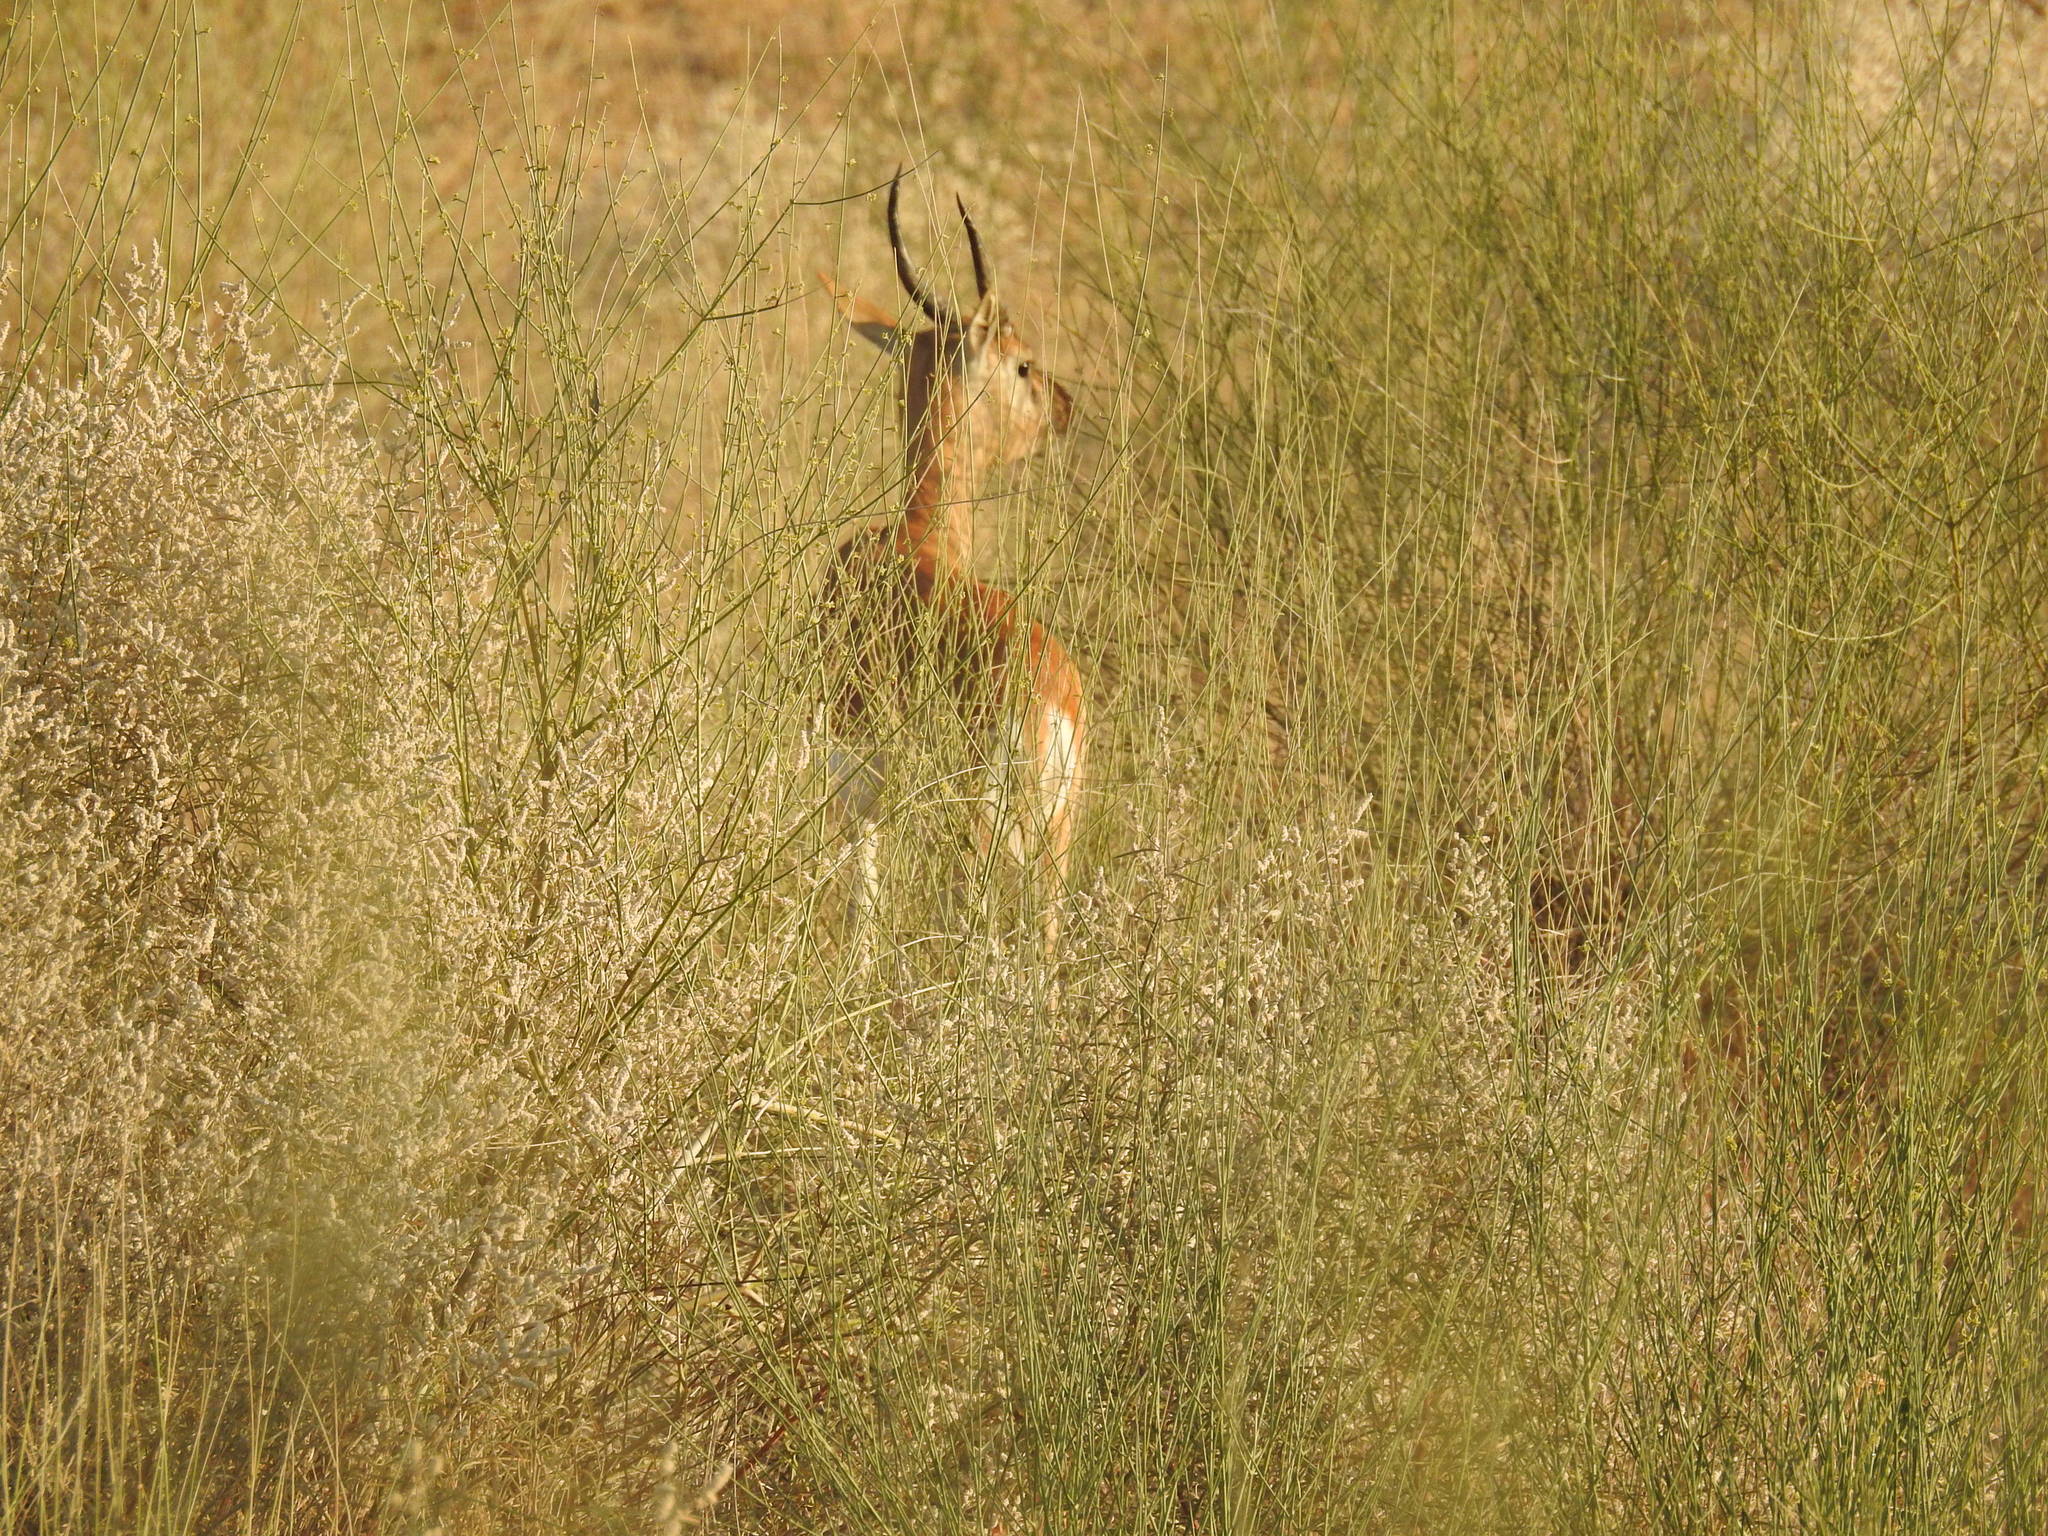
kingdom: Animalia
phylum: Chordata
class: Mammalia
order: Artiodactyla
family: Bovidae
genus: Gazella
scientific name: Gazella bennettii
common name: Indian gazelle
